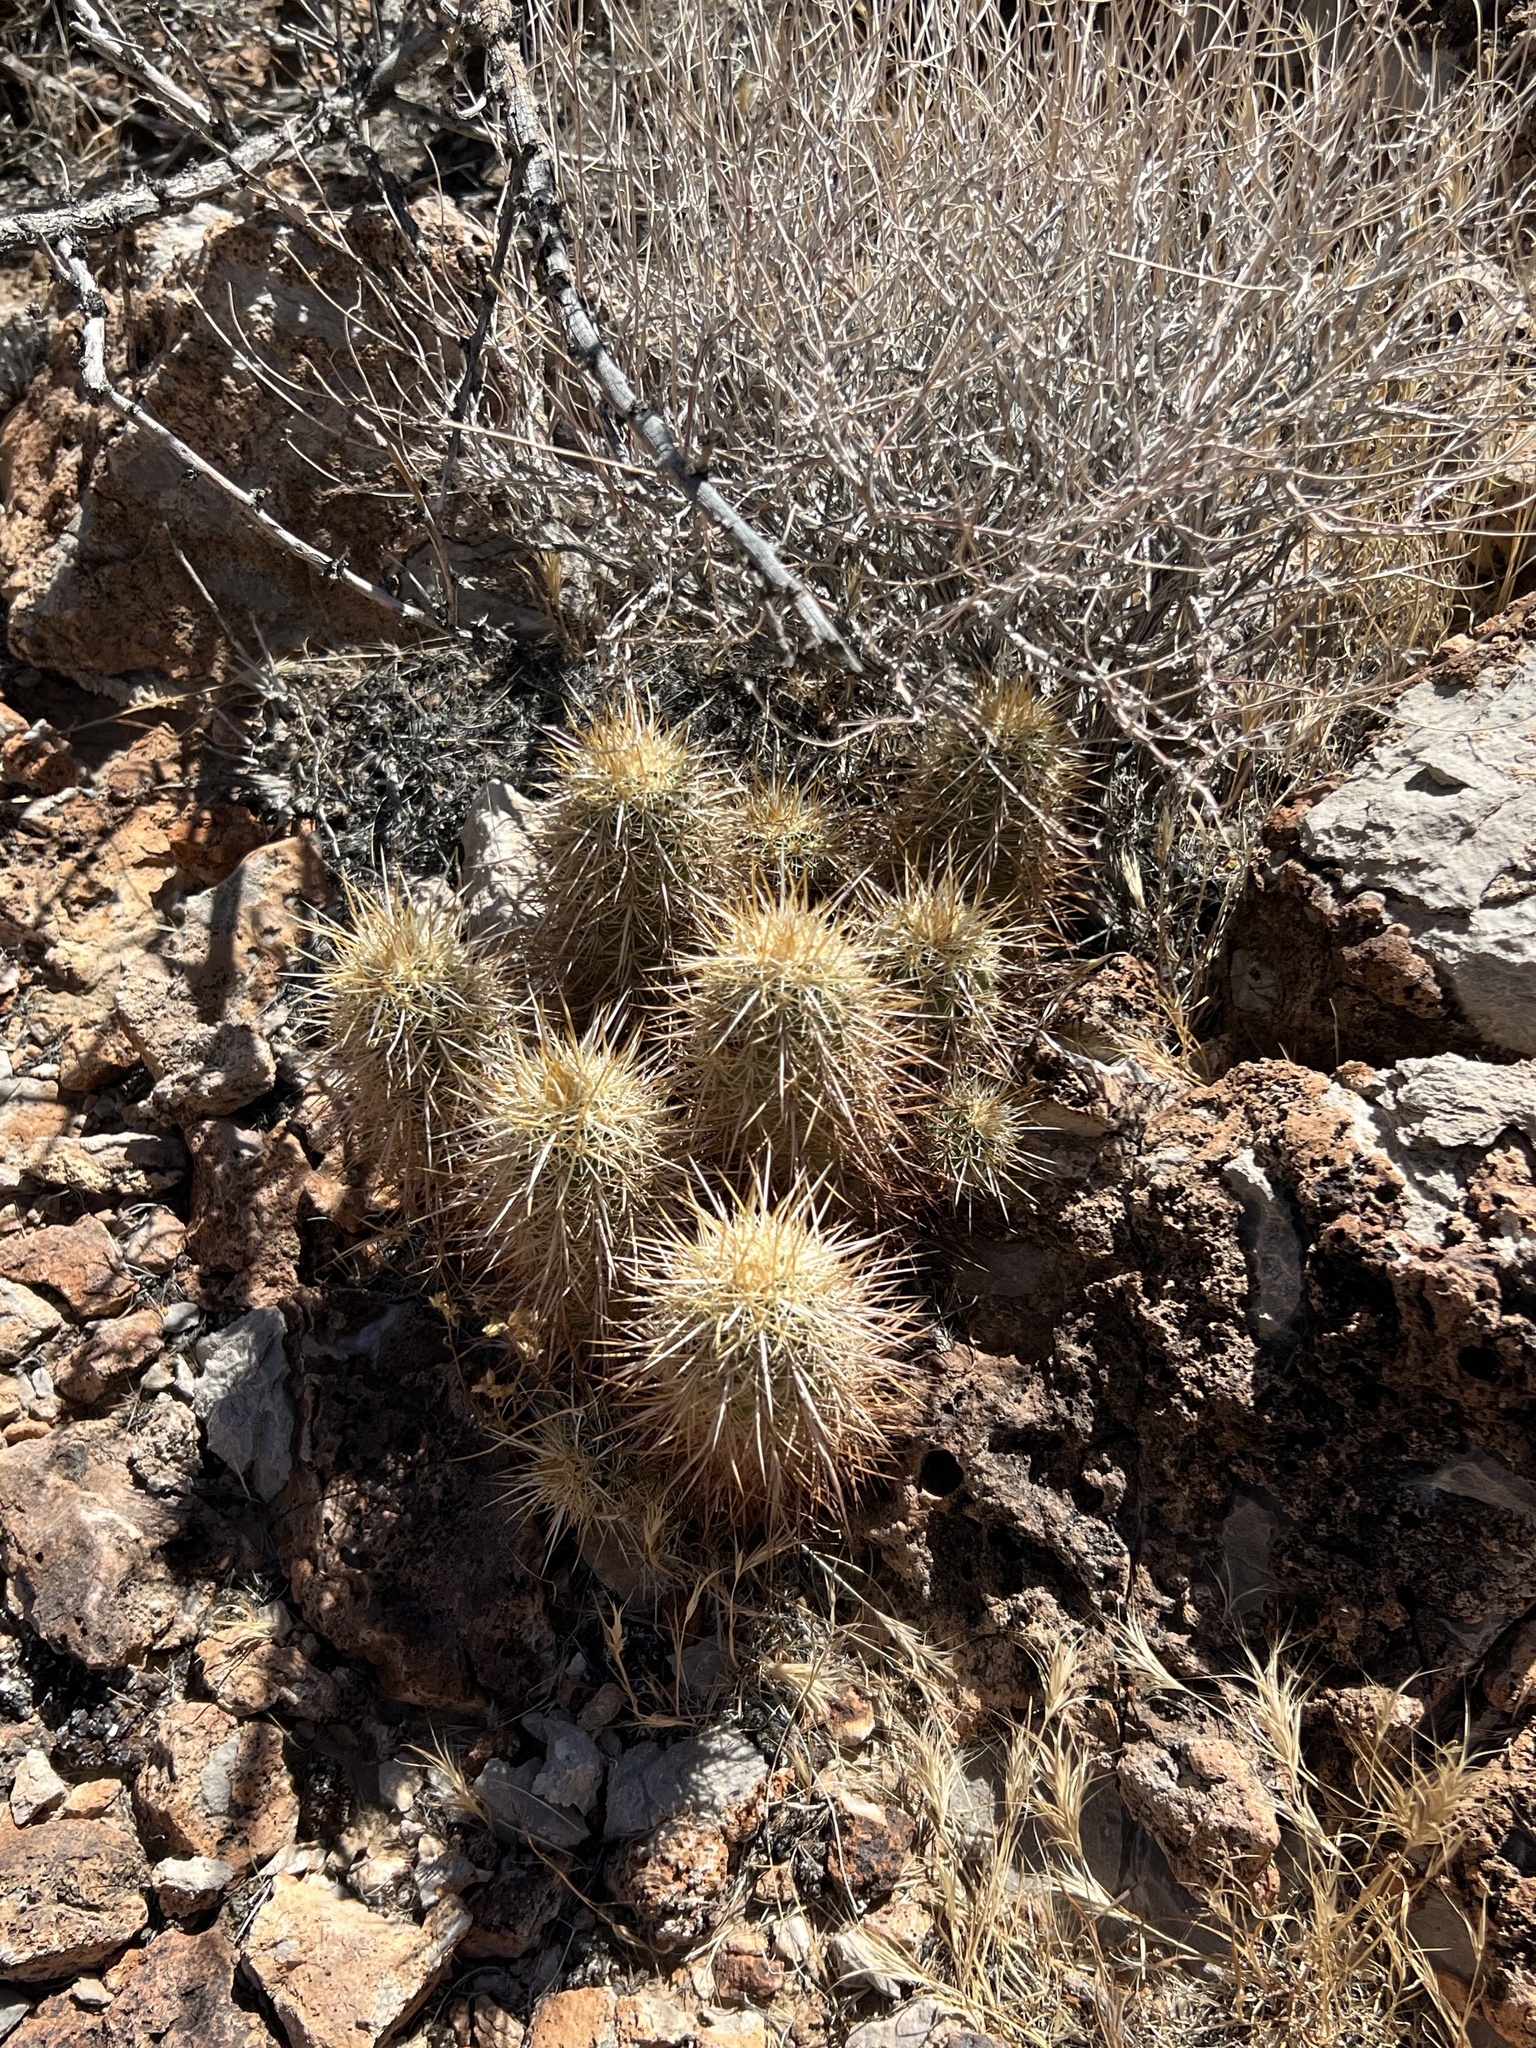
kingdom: Plantae
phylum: Tracheophyta
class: Magnoliopsida
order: Caryophyllales
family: Cactaceae
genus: Echinocereus
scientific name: Echinocereus engelmannii
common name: Engelmann's hedgehog cactus
